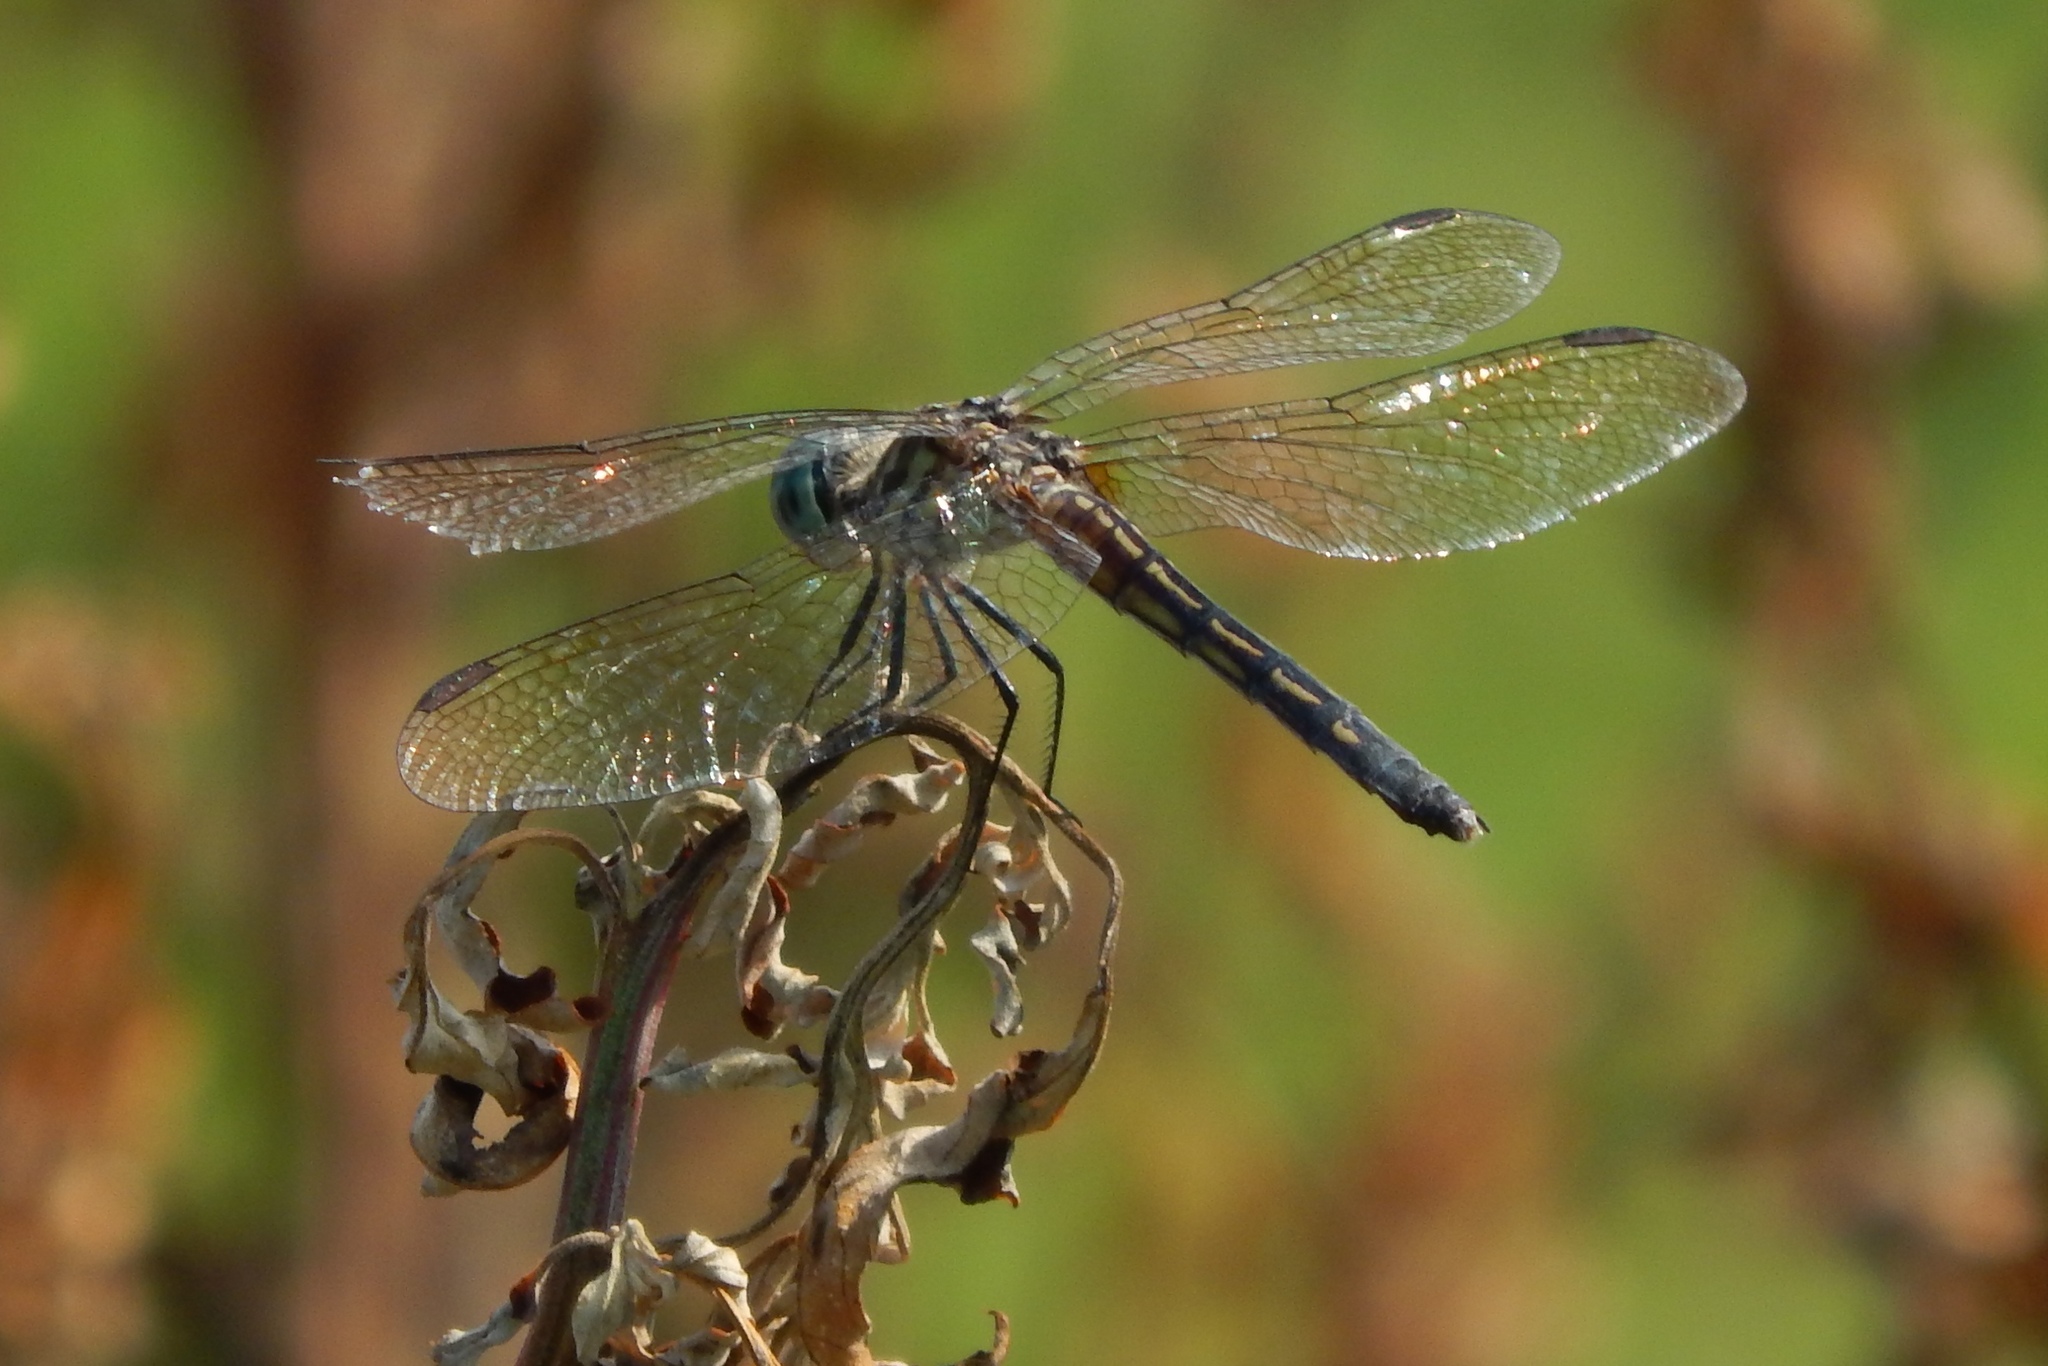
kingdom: Animalia
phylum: Arthropoda
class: Insecta
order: Odonata
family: Libellulidae
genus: Pachydiplax
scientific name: Pachydiplax longipennis
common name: Blue dasher
